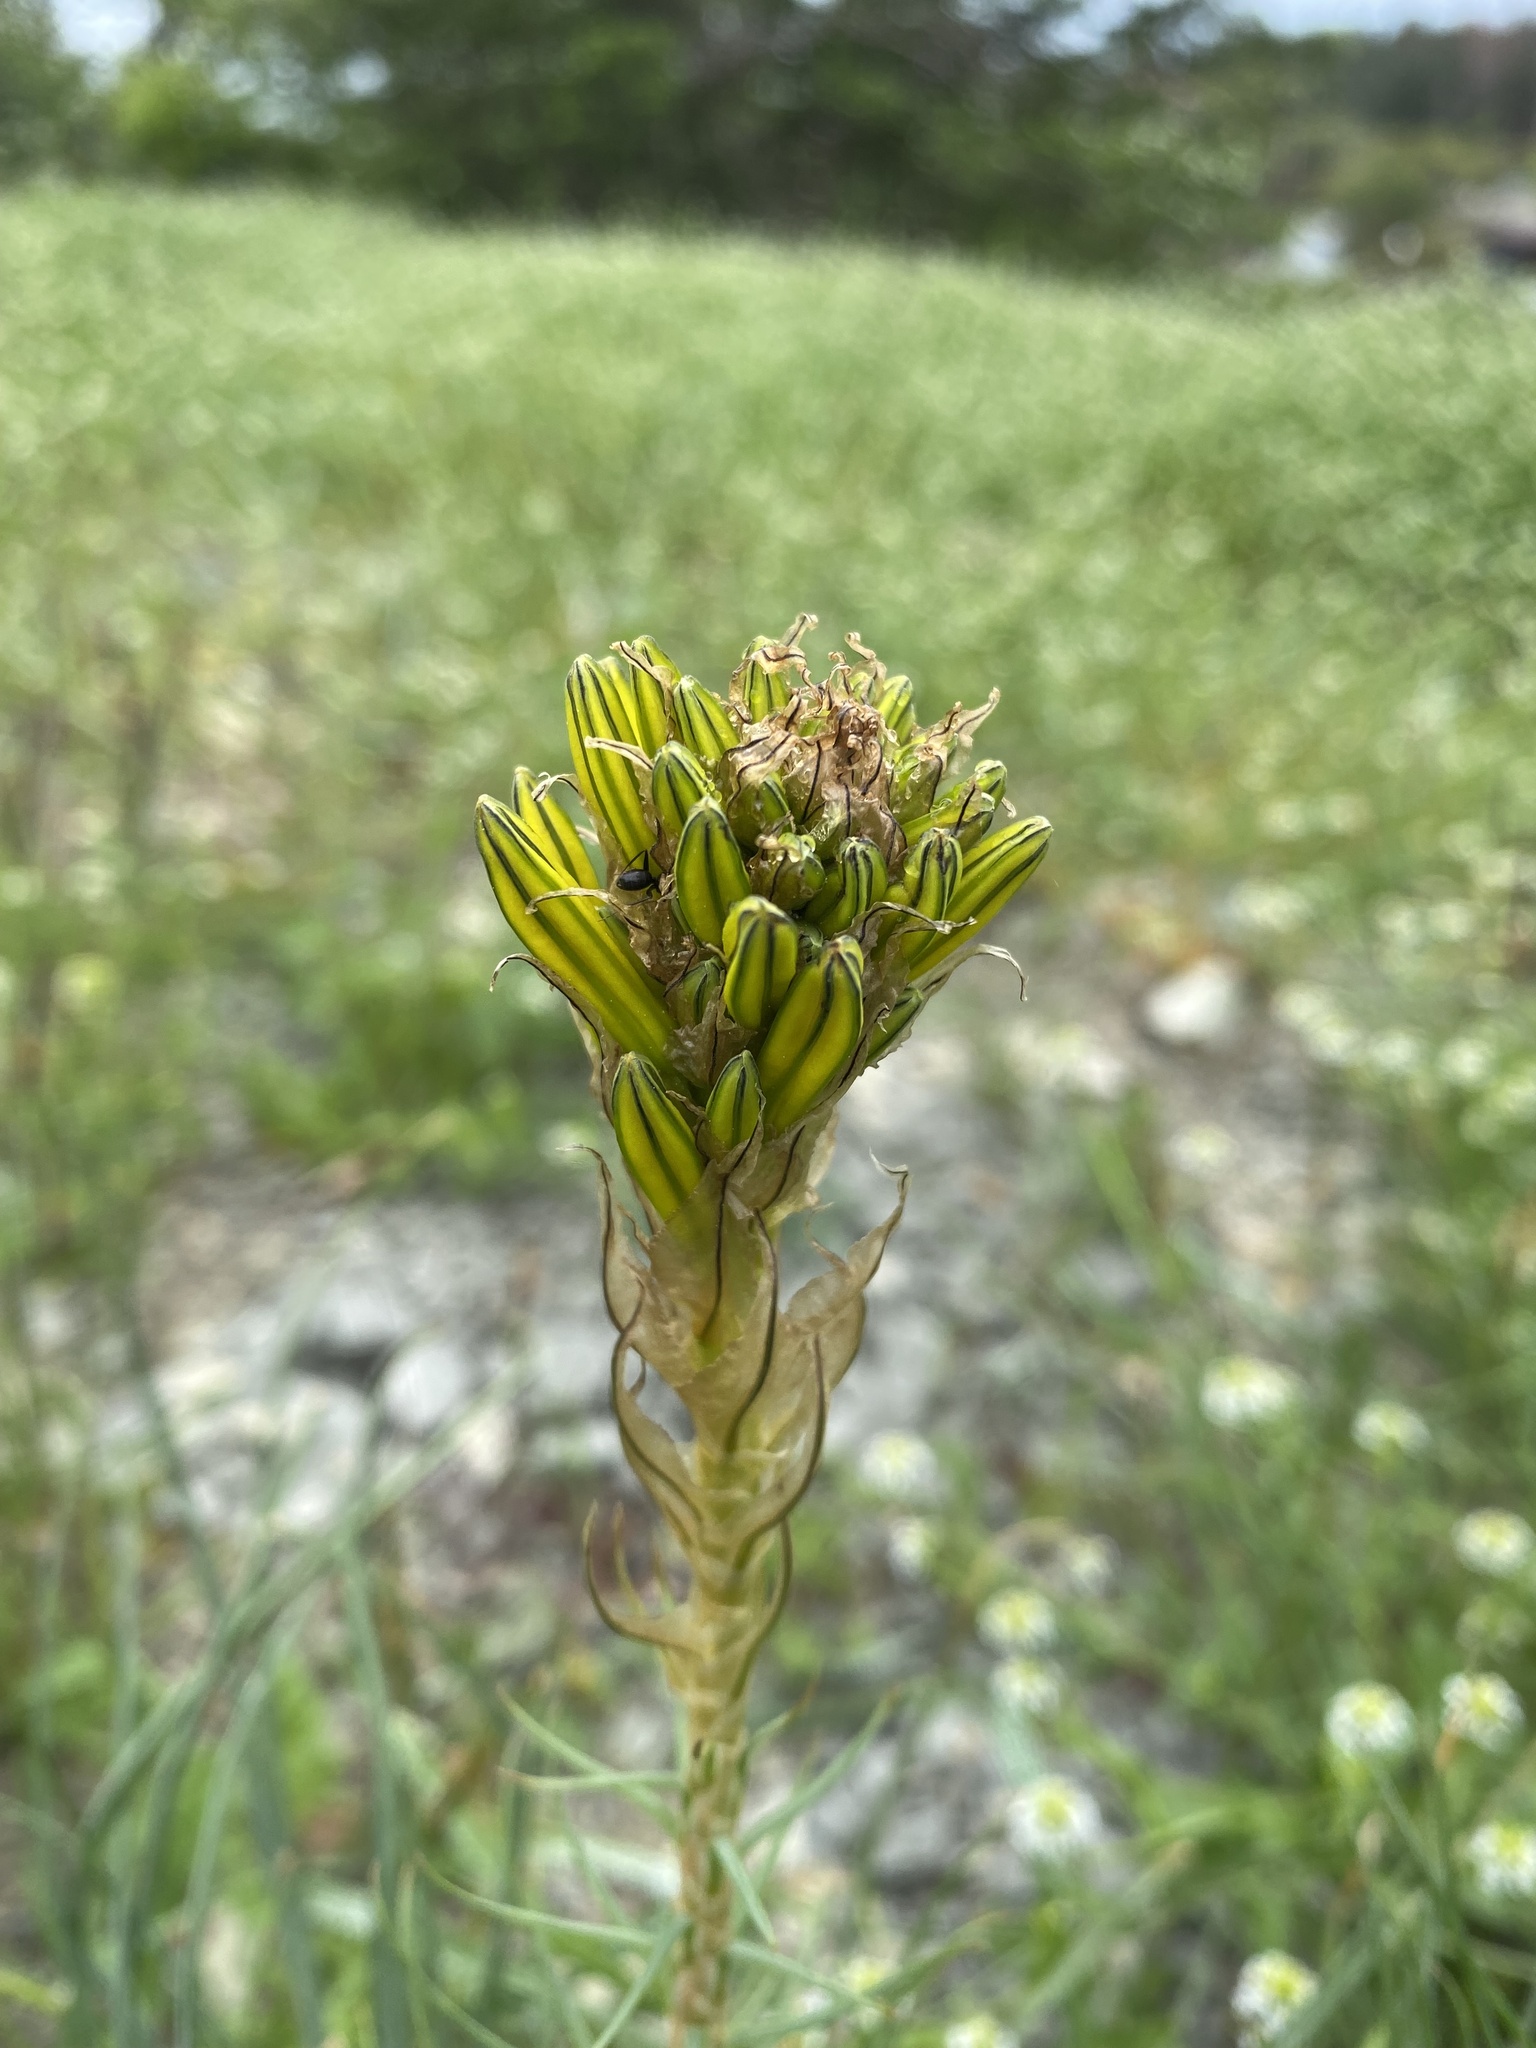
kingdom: Plantae
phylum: Tracheophyta
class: Liliopsida
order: Asparagales
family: Asphodelaceae
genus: Asphodeline
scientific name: Asphodeline lutea
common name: Yellow asphodel
